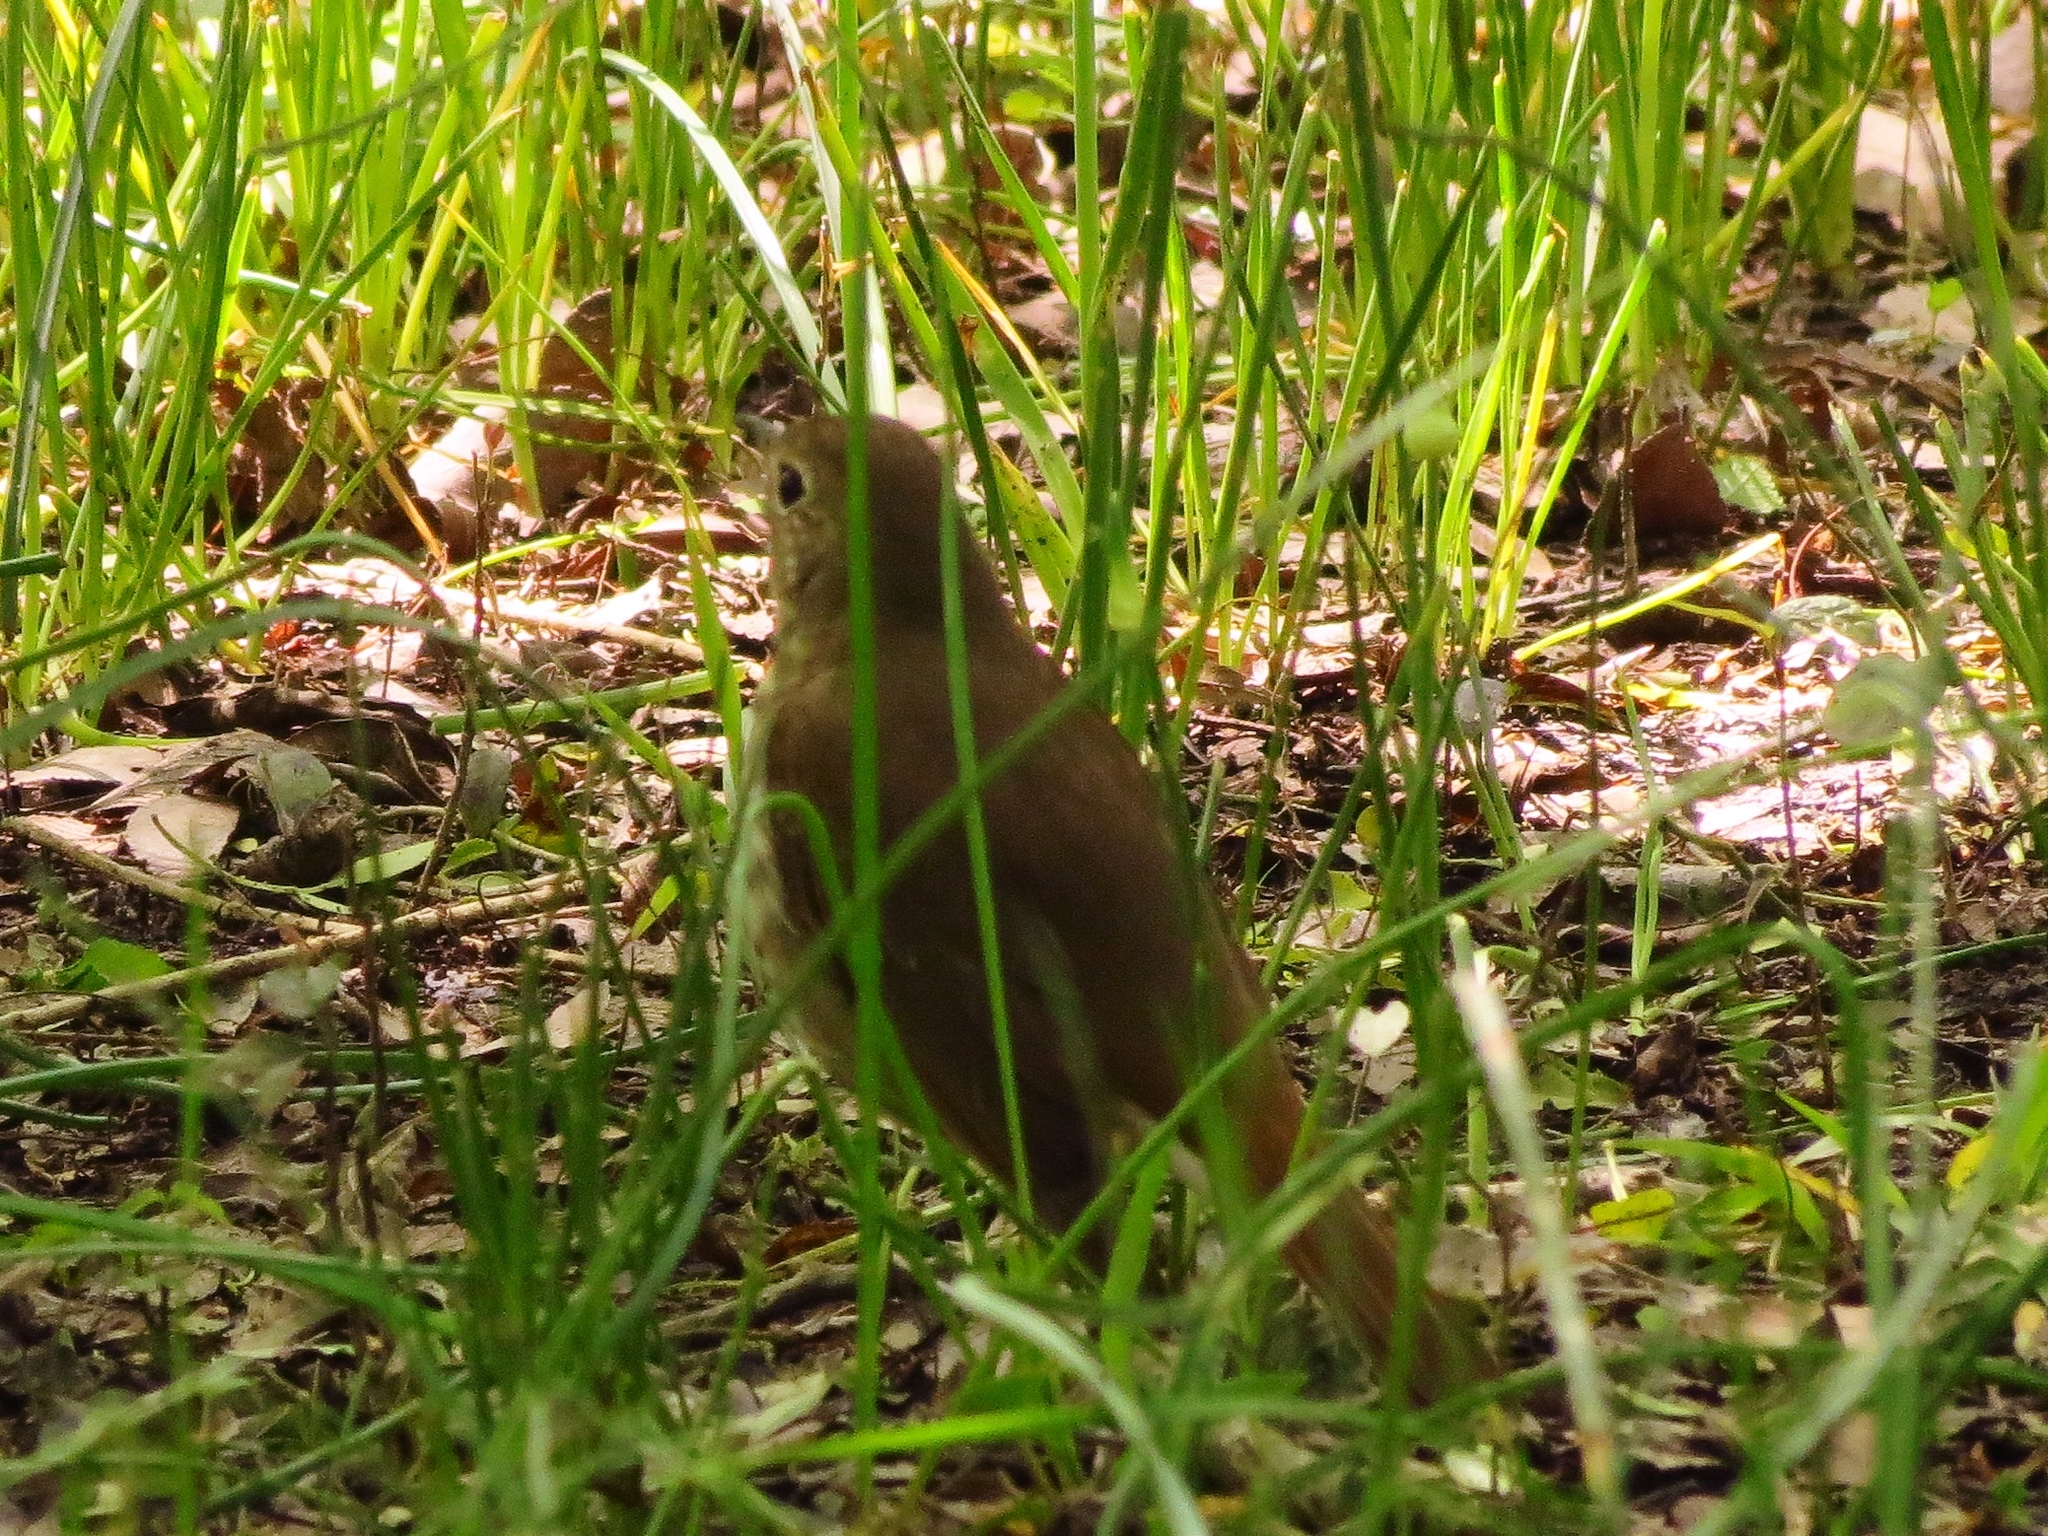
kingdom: Animalia
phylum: Chordata
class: Aves
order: Passeriformes
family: Turdidae
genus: Catharus
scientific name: Catharus guttatus
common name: Hermit thrush
